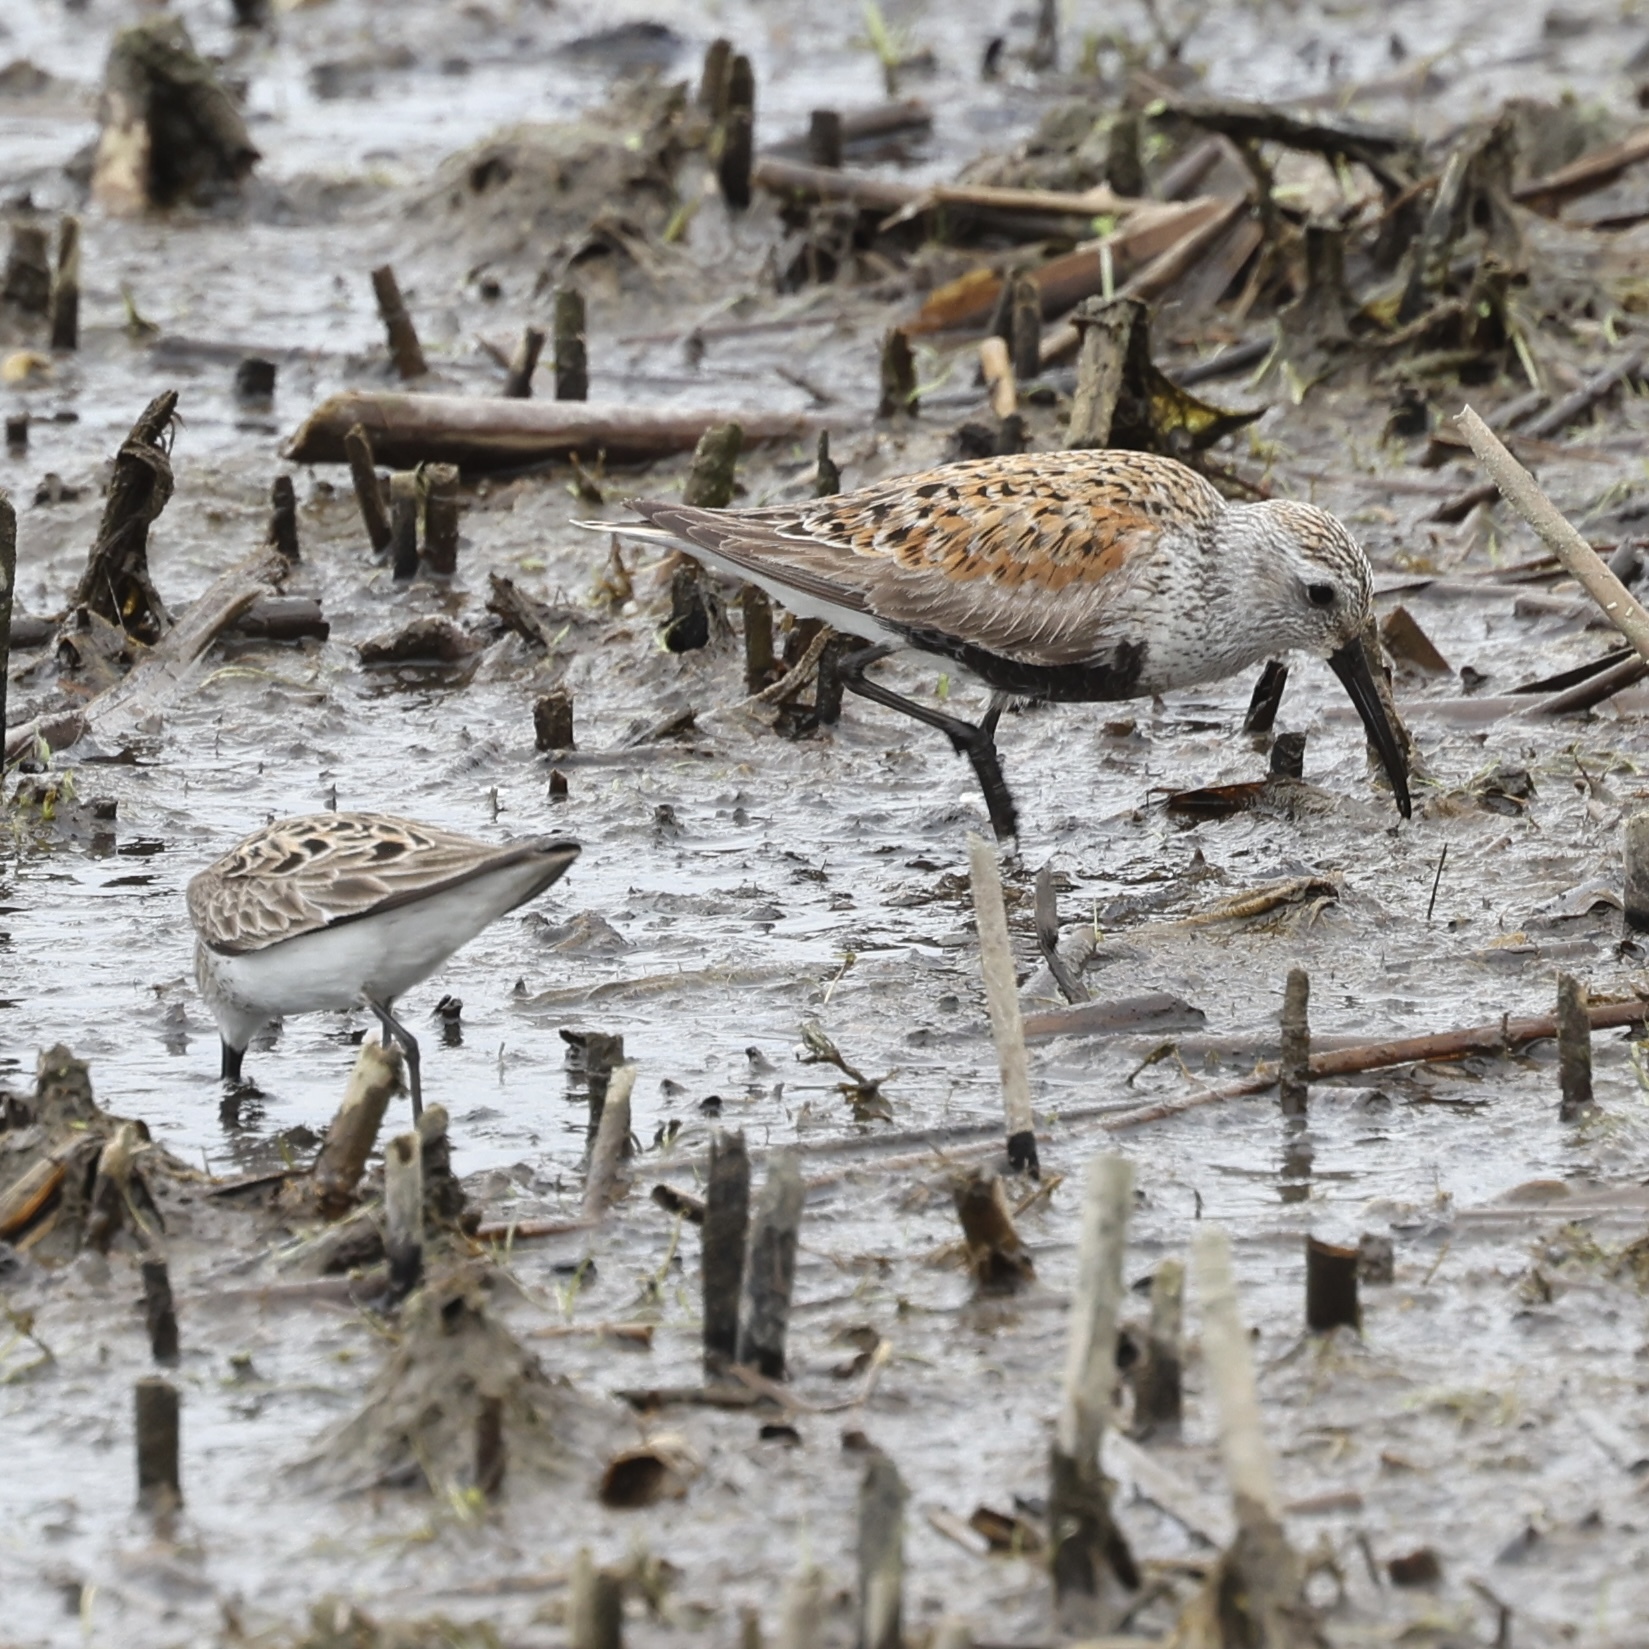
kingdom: Animalia
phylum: Chordata
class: Aves
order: Charadriiformes
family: Scolopacidae
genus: Calidris
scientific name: Calidris alpina
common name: Dunlin
